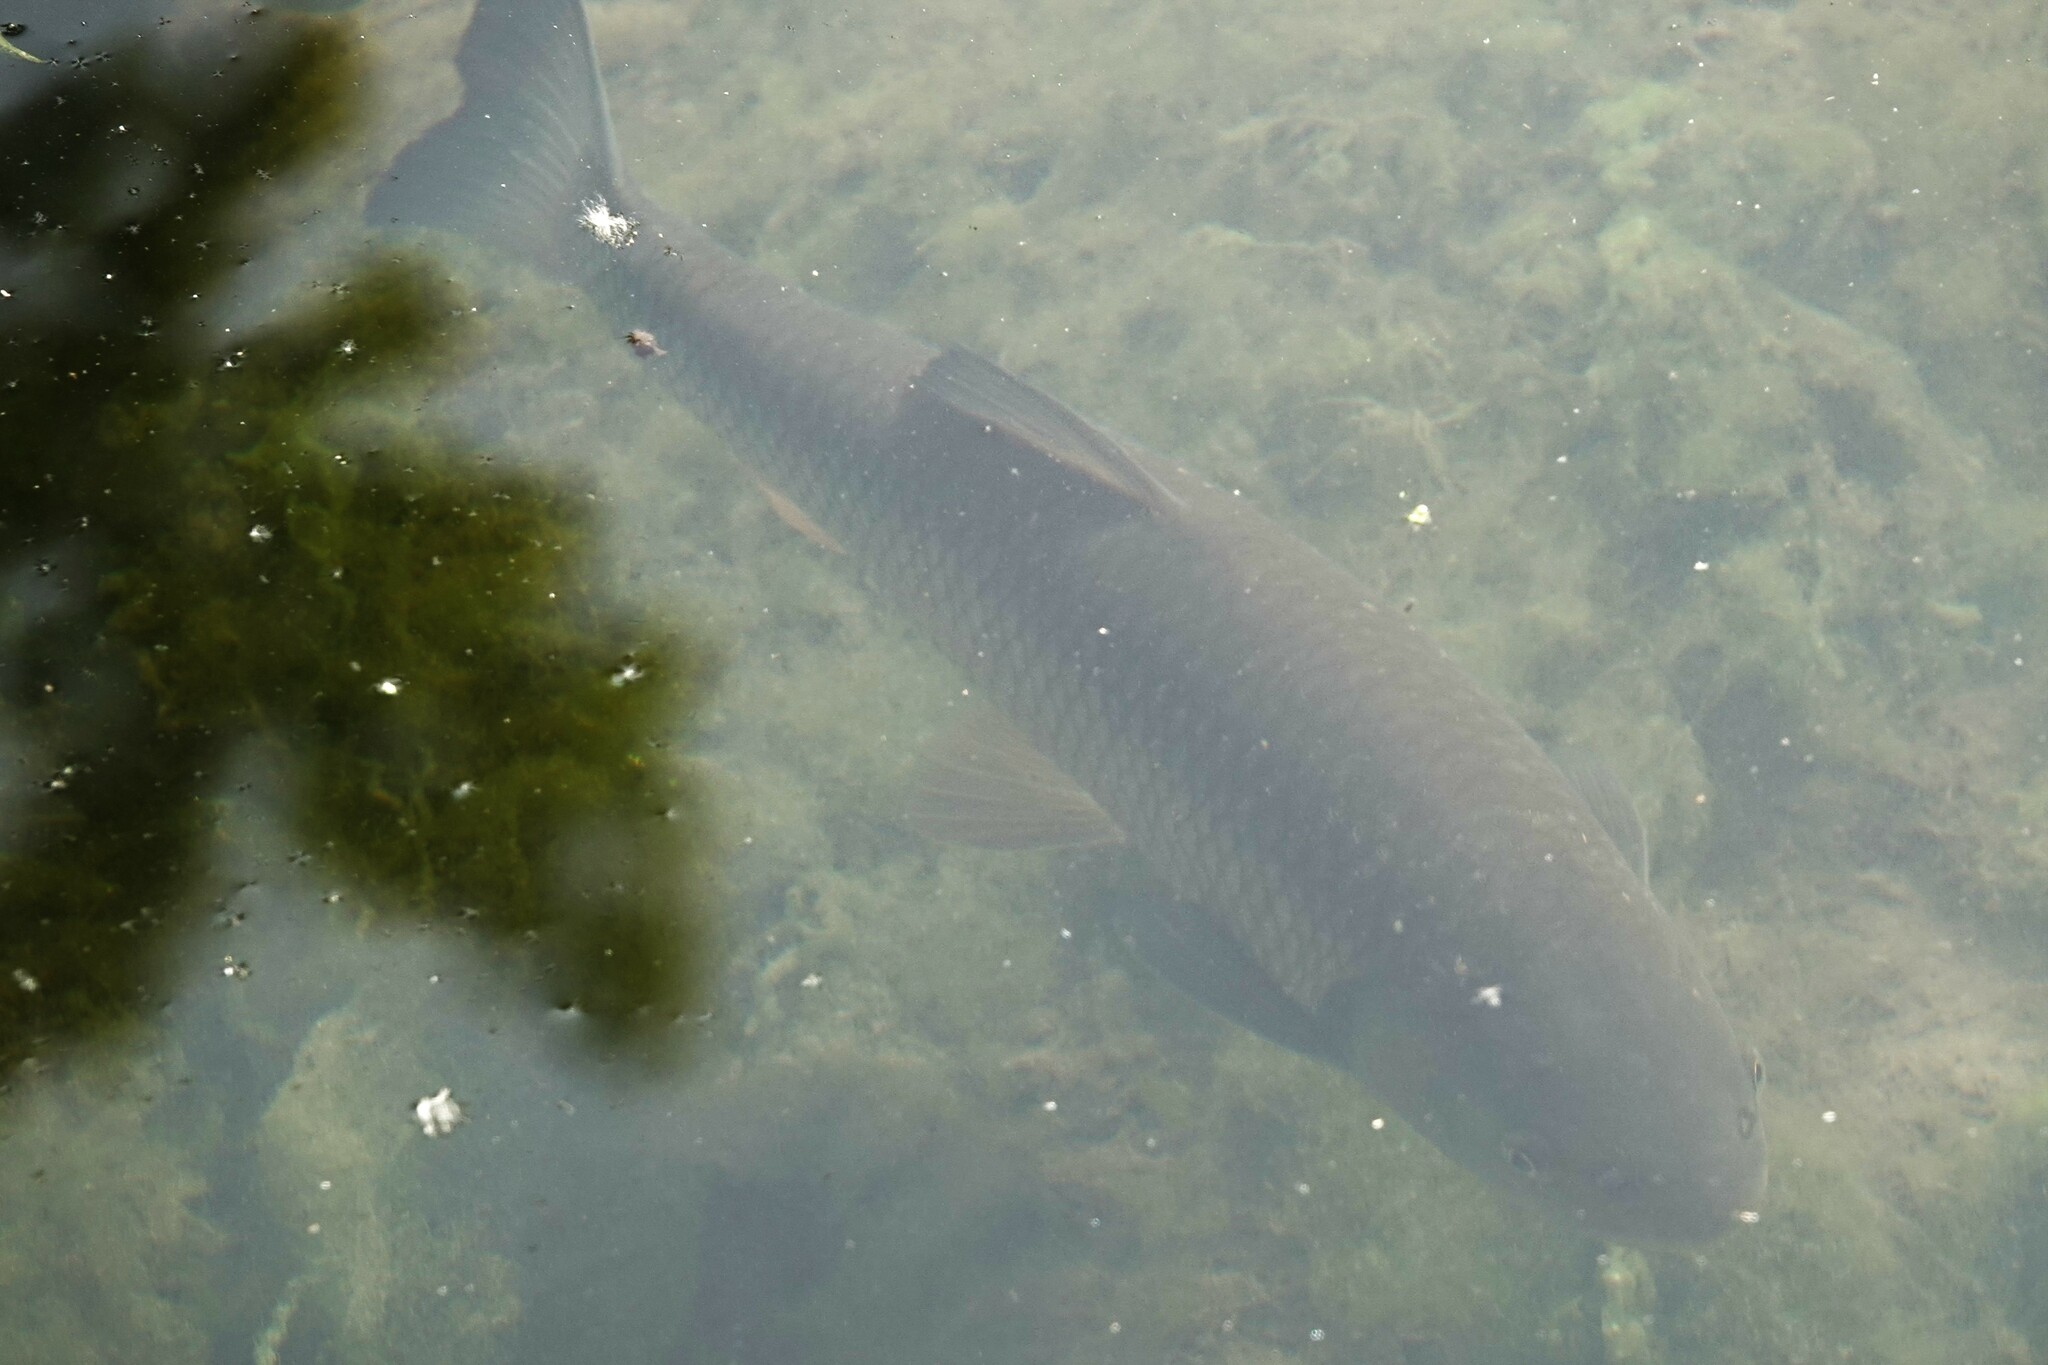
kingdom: Animalia
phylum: Chordata
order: Cypriniformes
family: Cyprinidae
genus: Squalius
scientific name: Squalius cephalus
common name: Chub
